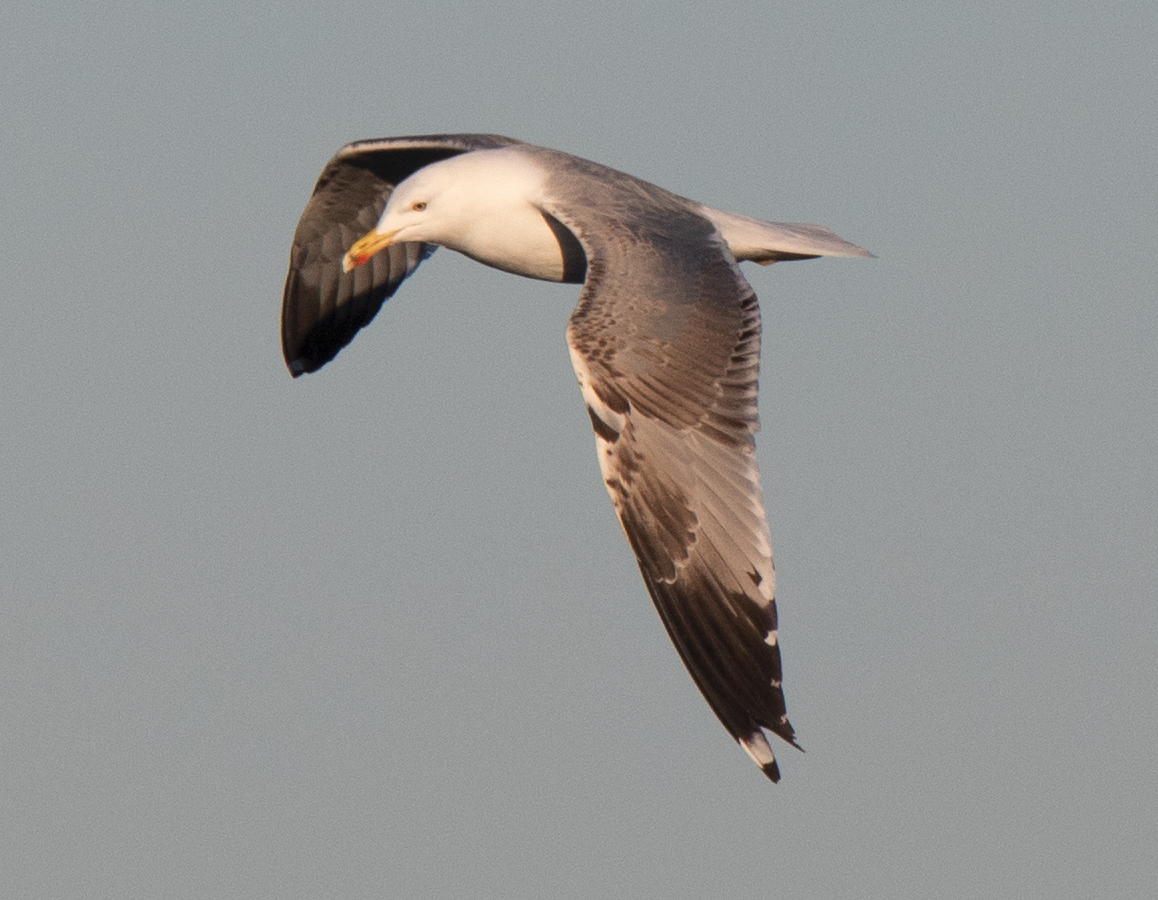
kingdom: Animalia
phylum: Chordata
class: Aves
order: Charadriiformes
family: Laridae
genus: Larus
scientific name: Larus michahellis
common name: Yellow-legged gull
